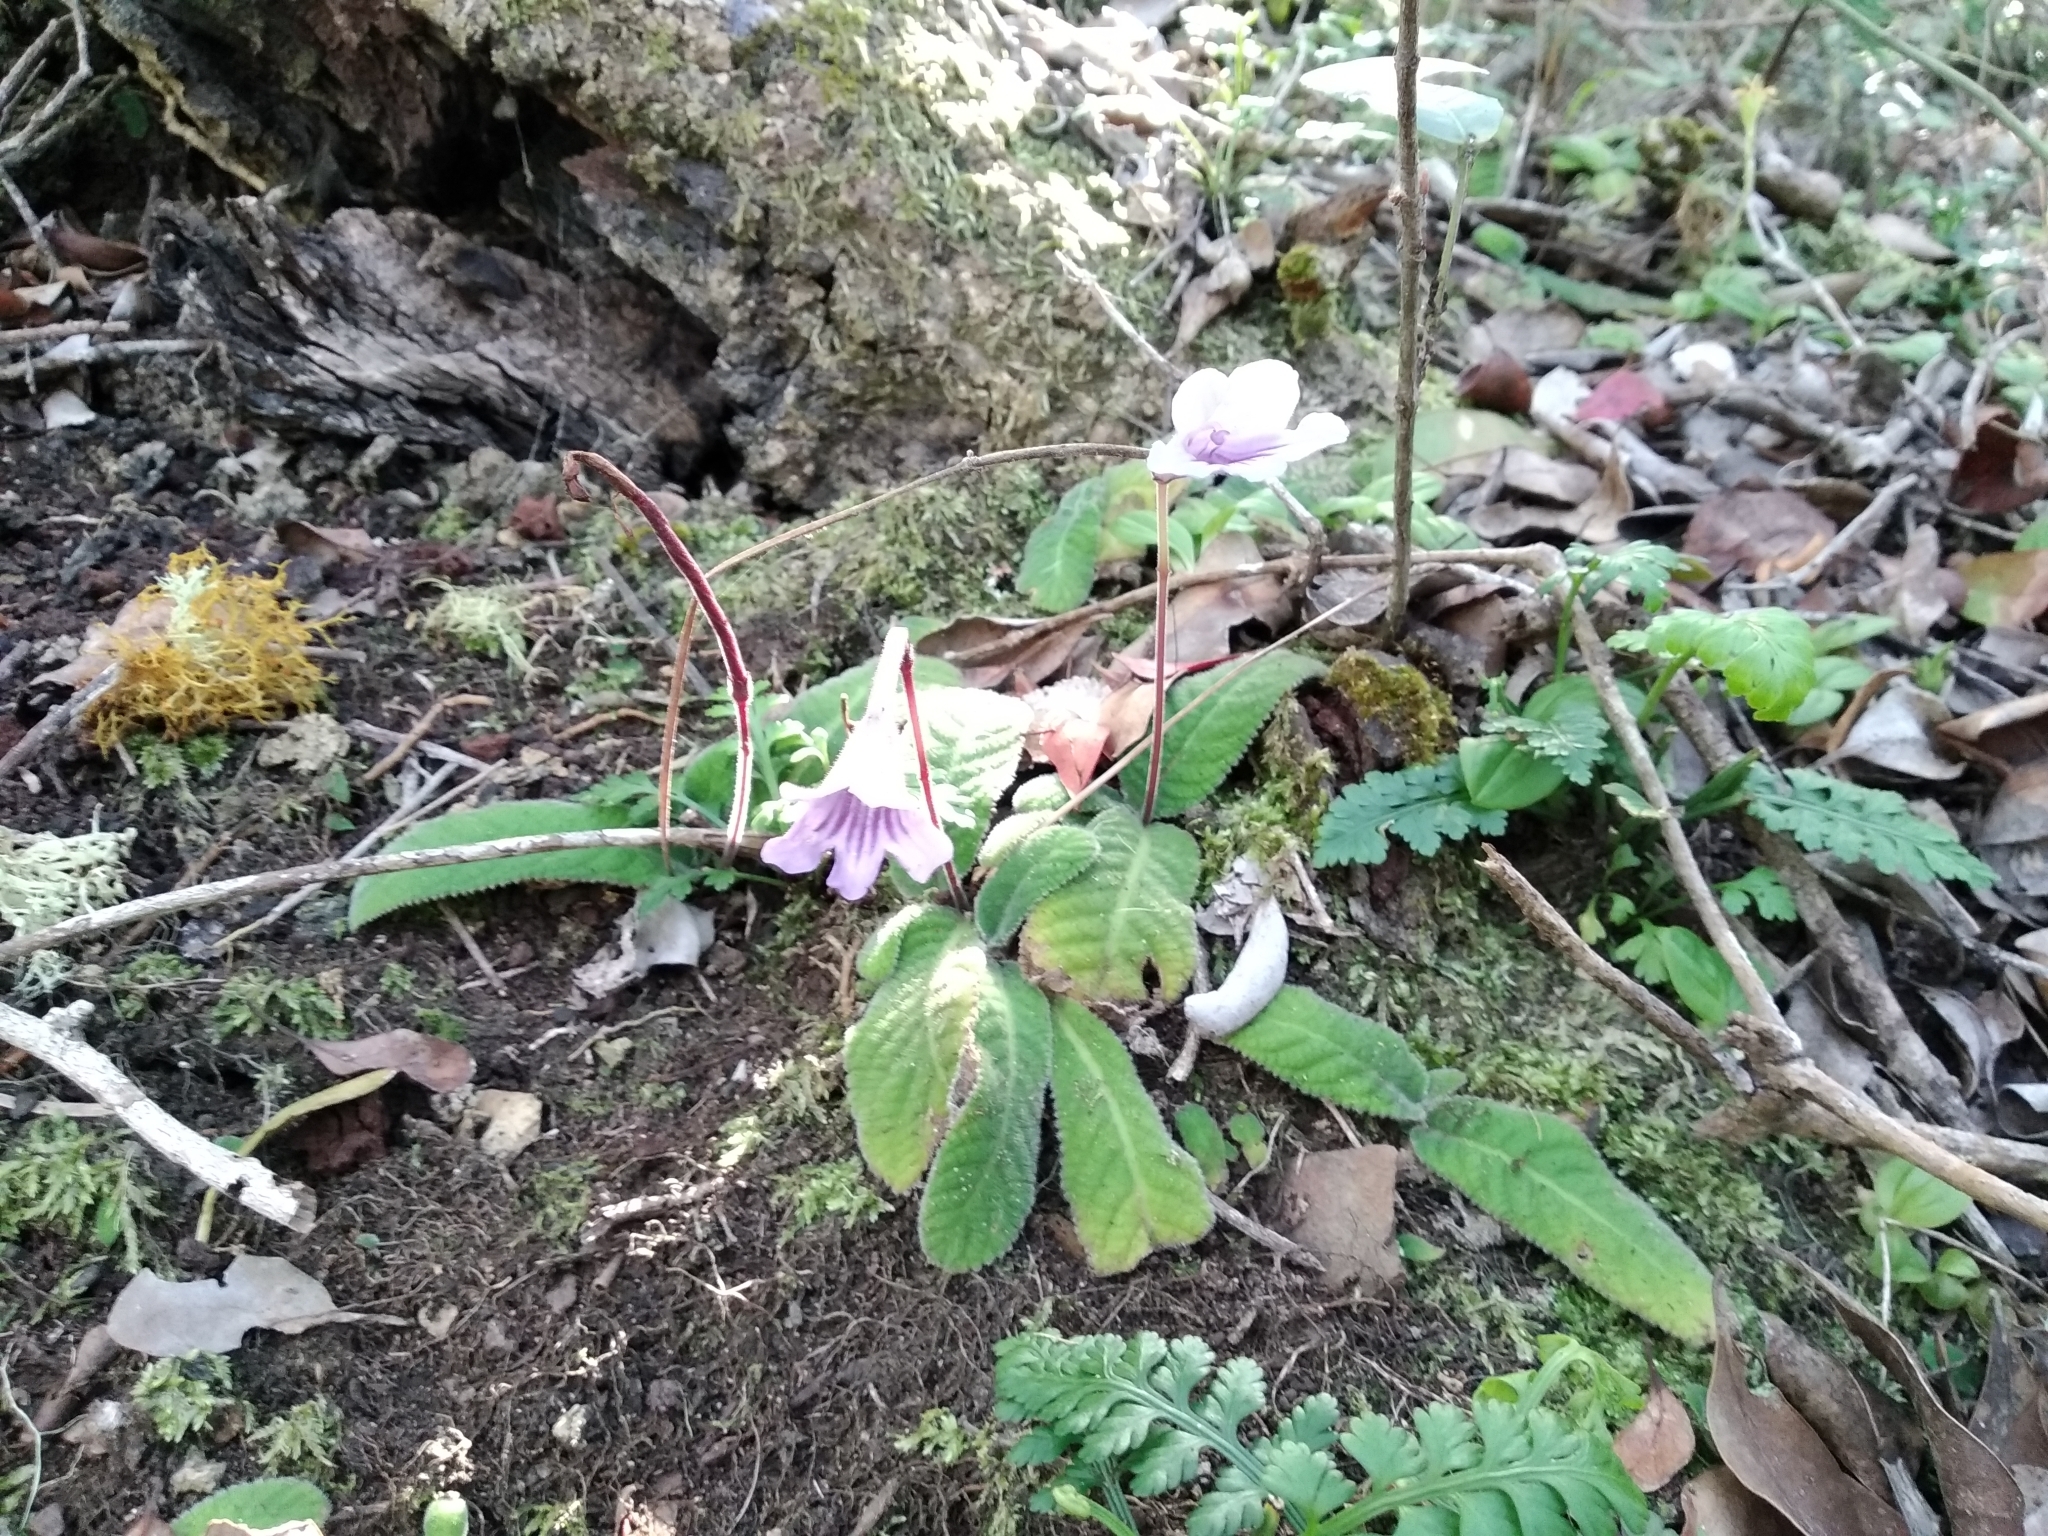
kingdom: Plantae
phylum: Tracheophyta
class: Magnoliopsida
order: Lamiales
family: Gesneriaceae
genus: Streptocarpus
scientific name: Streptocarpus rexii
